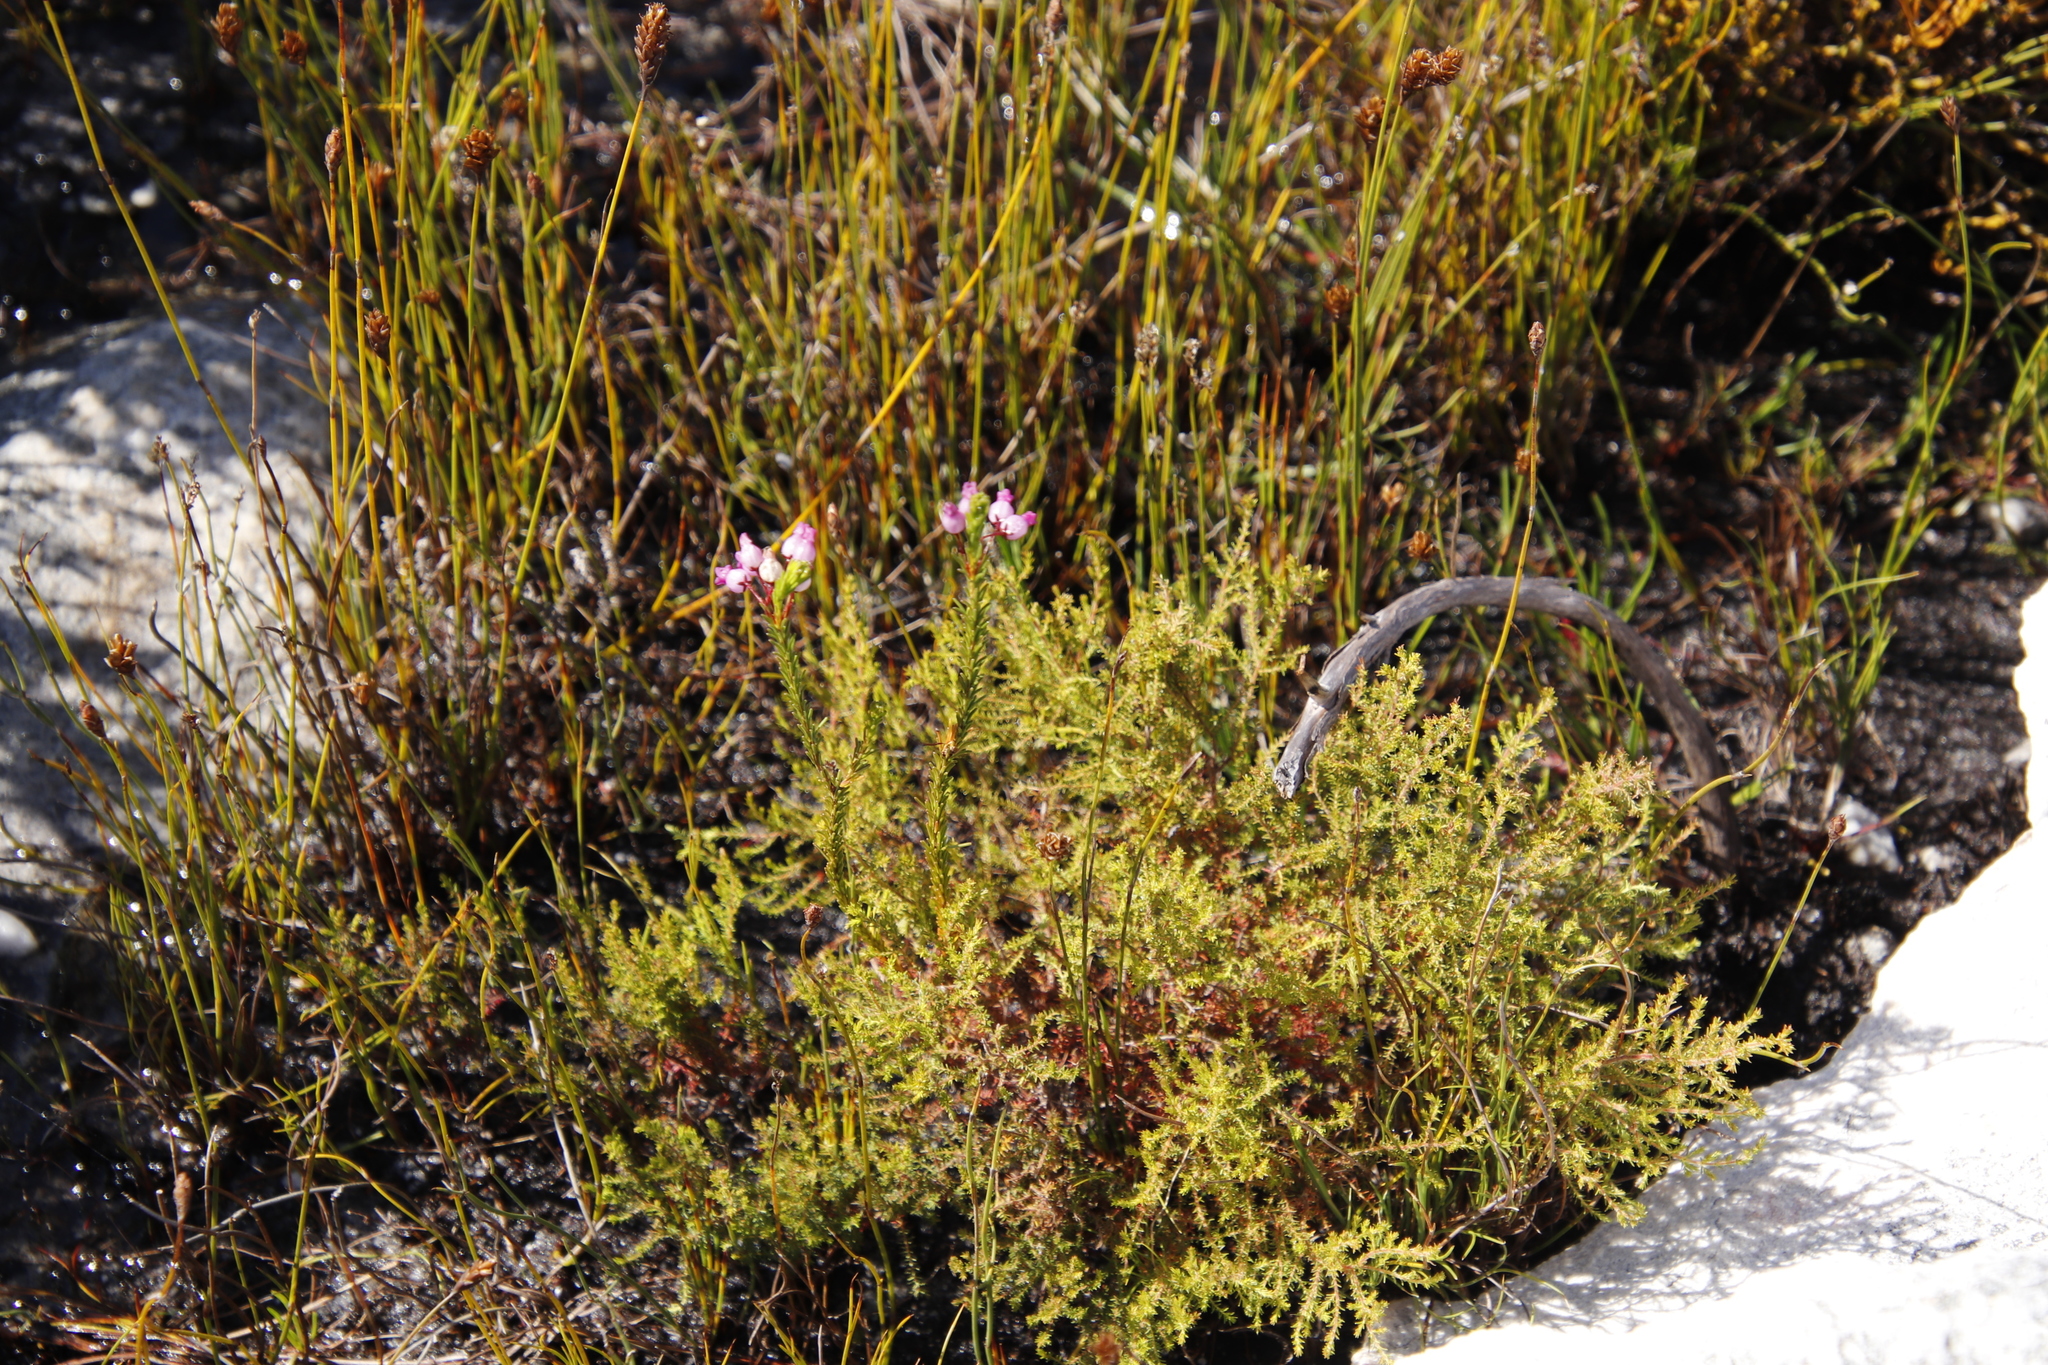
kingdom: Plantae
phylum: Tracheophyta
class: Magnoliopsida
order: Ericales
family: Ericaceae
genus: Erica
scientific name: Erica obliqua
